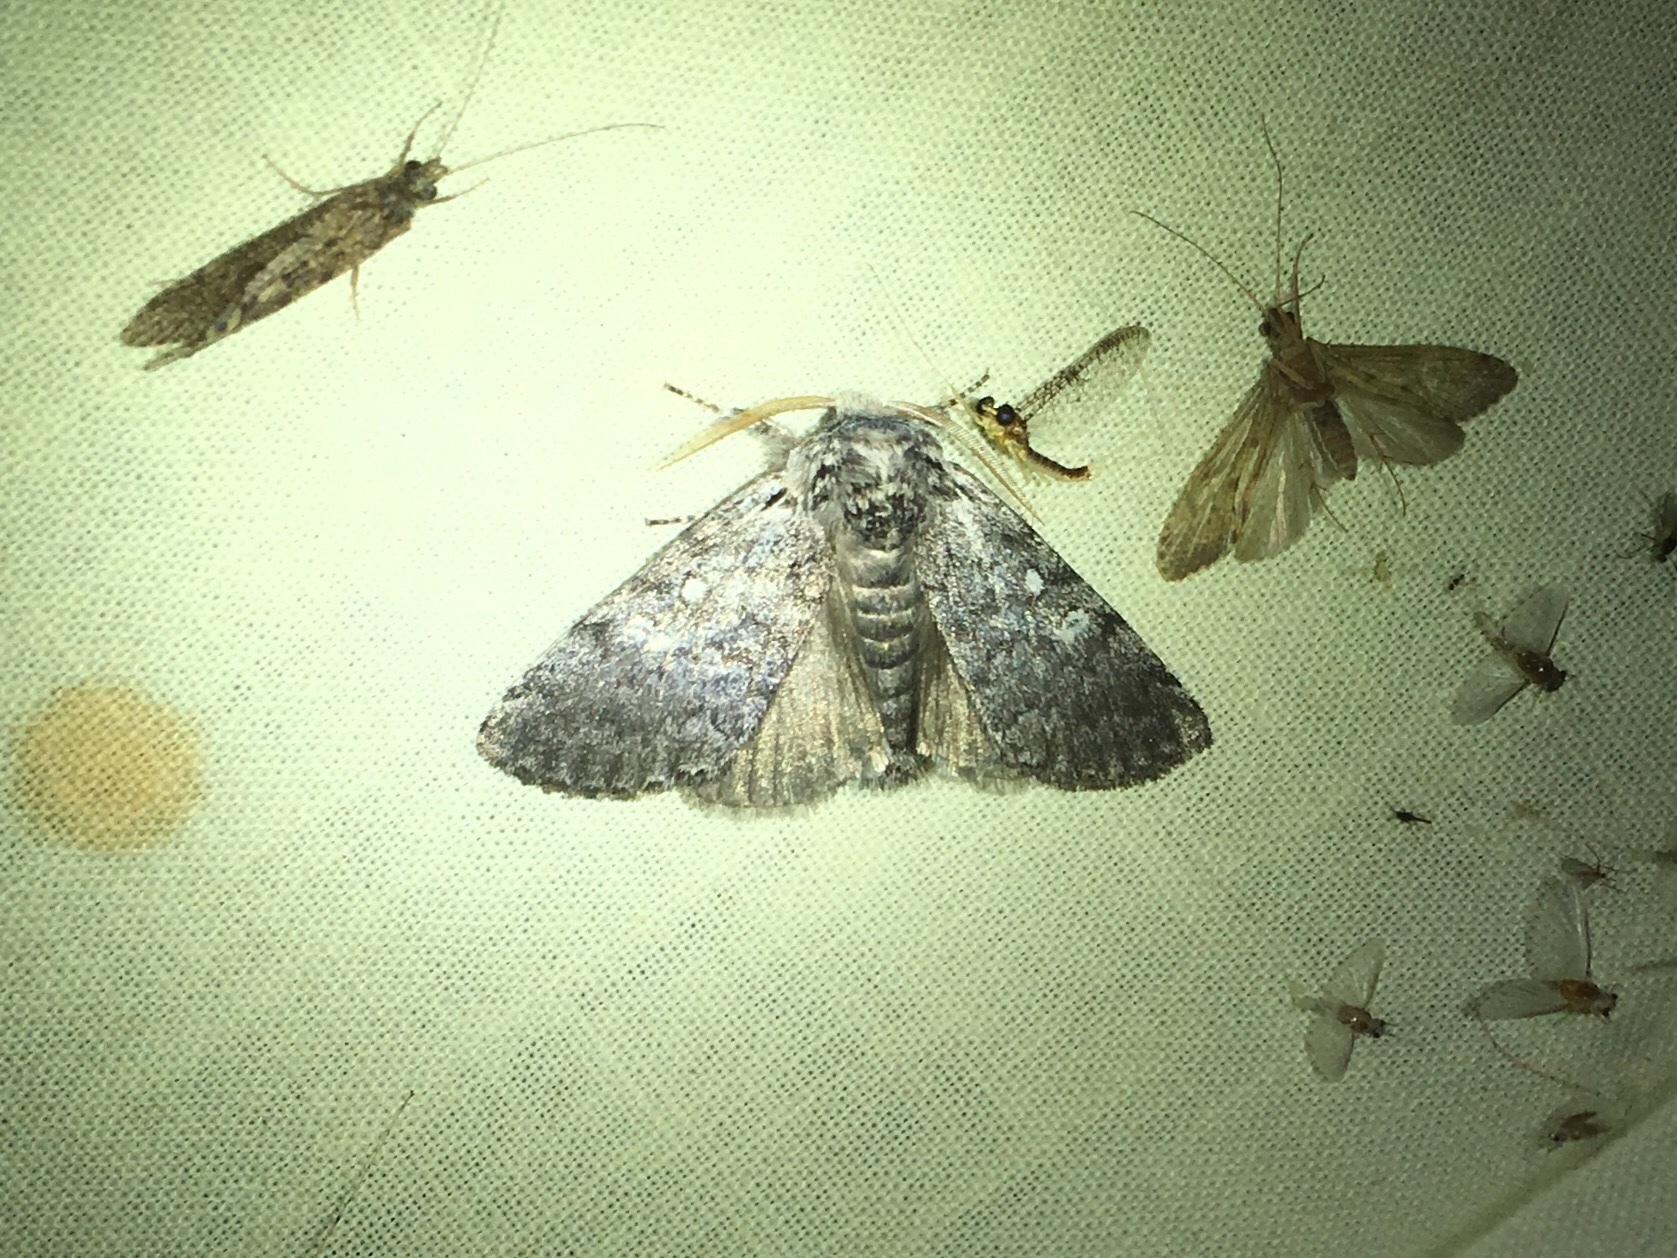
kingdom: Animalia
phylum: Arthropoda
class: Insecta
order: Lepidoptera
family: Noctuidae
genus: Colocasia
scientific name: Colocasia propinquilinea
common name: Close-banded demas
